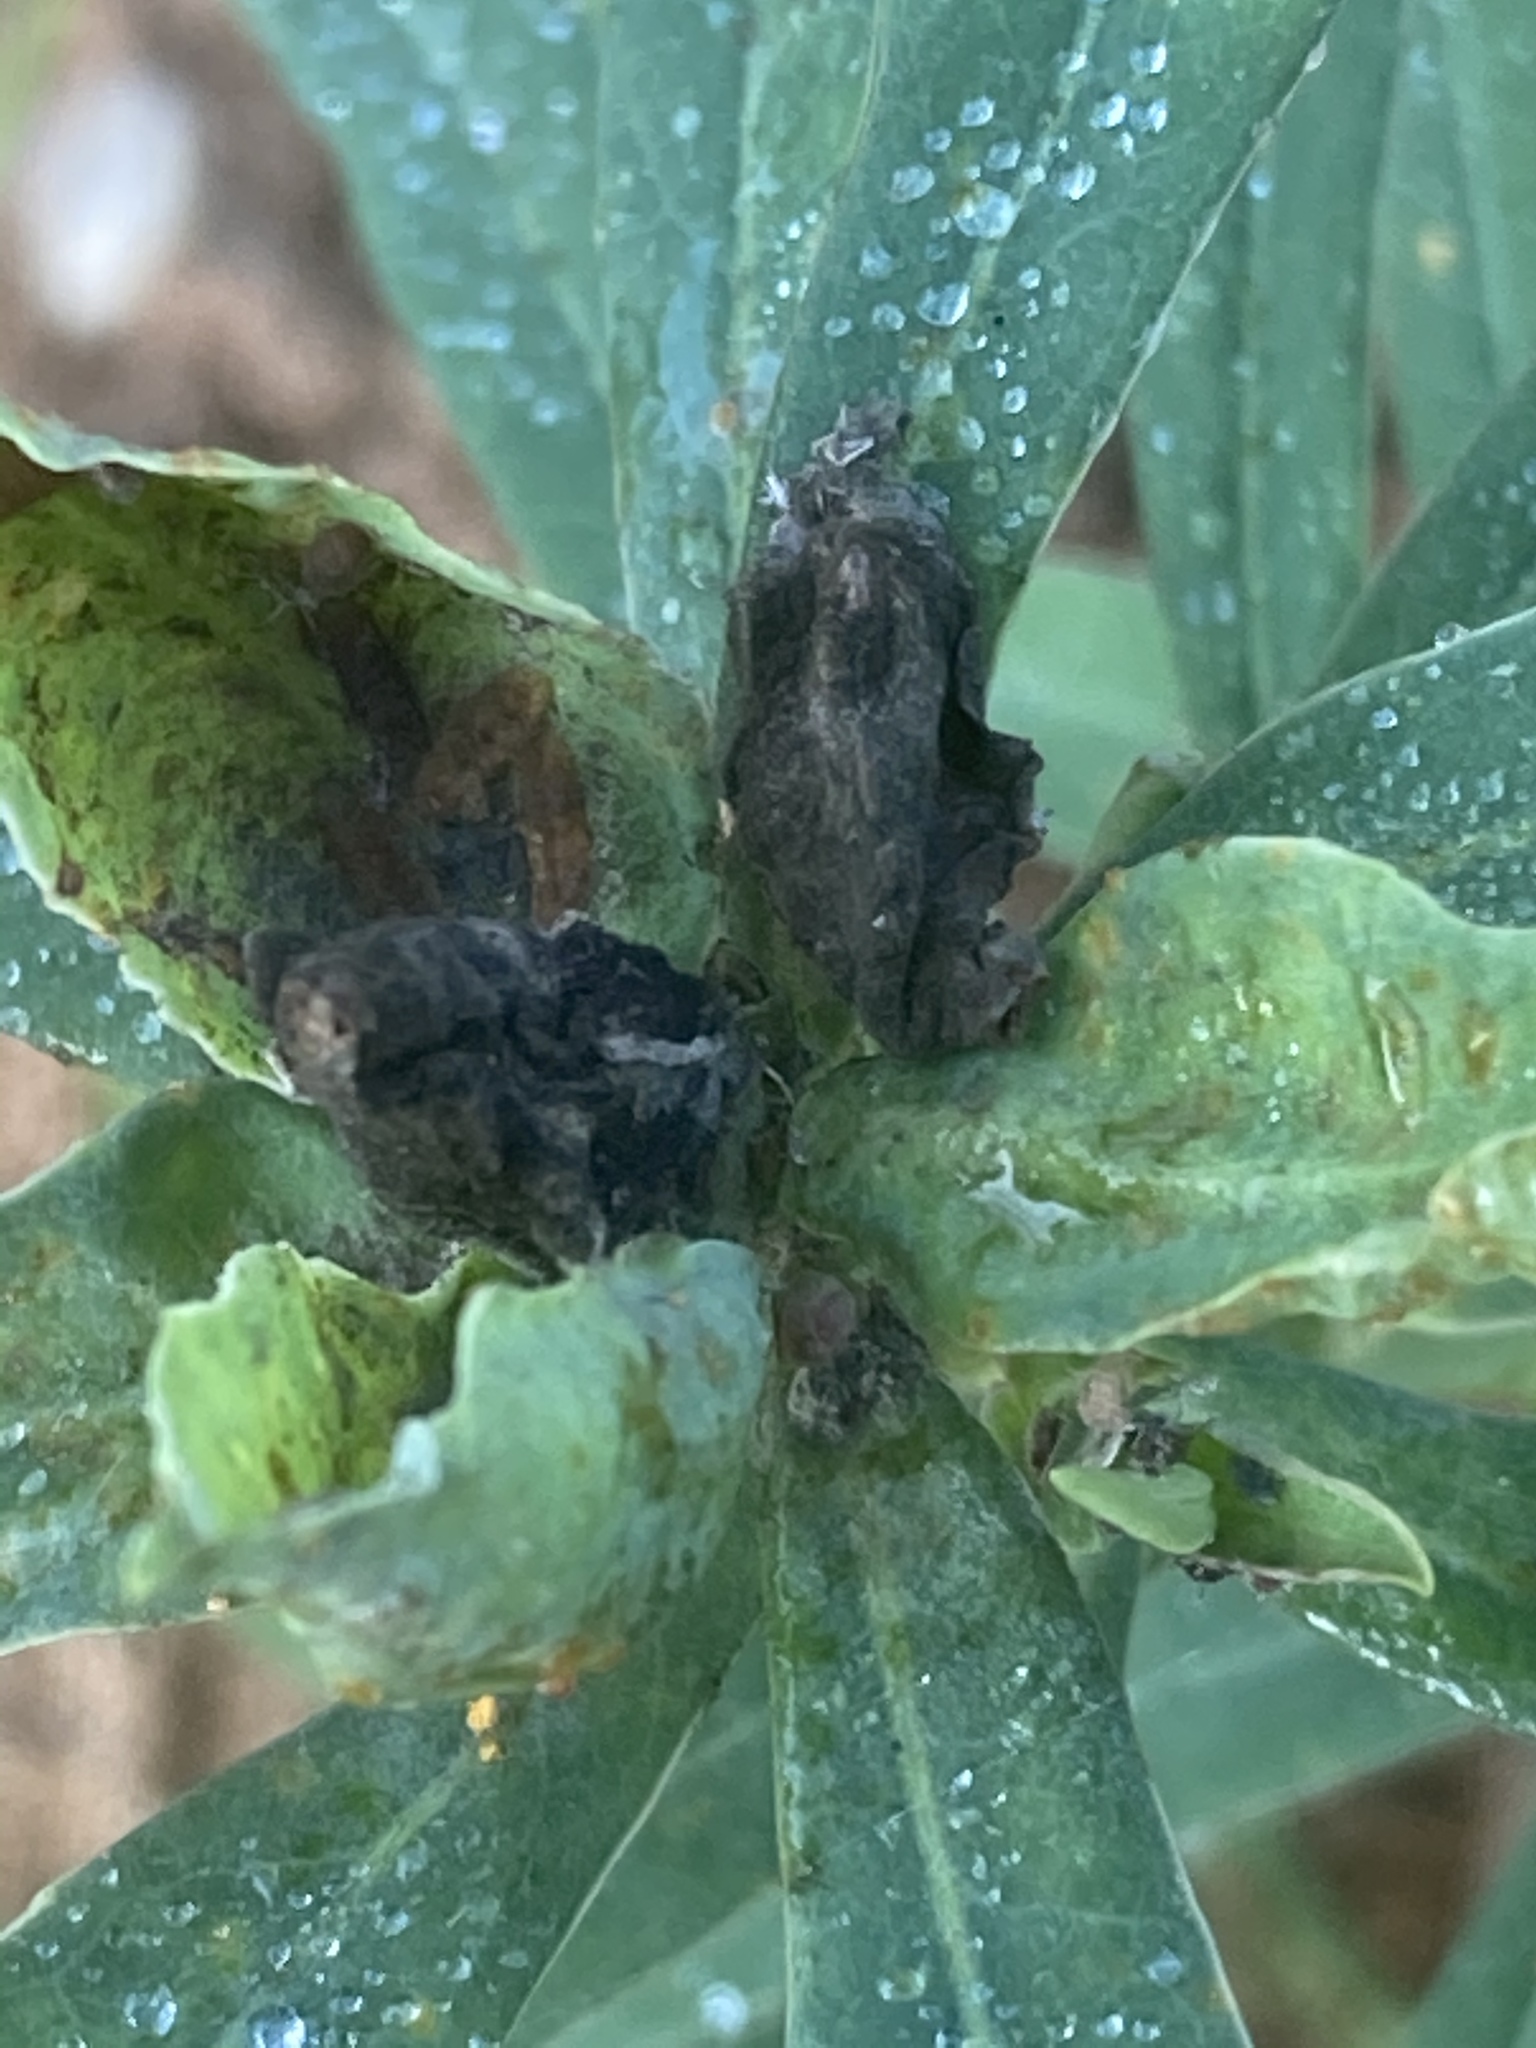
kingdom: Fungi
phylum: Basidiomycota
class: Pucciniomycetes
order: Pucciniales
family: Melampsoraceae
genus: Melampsora
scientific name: Melampsora euphorbiae
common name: Spurge rust
